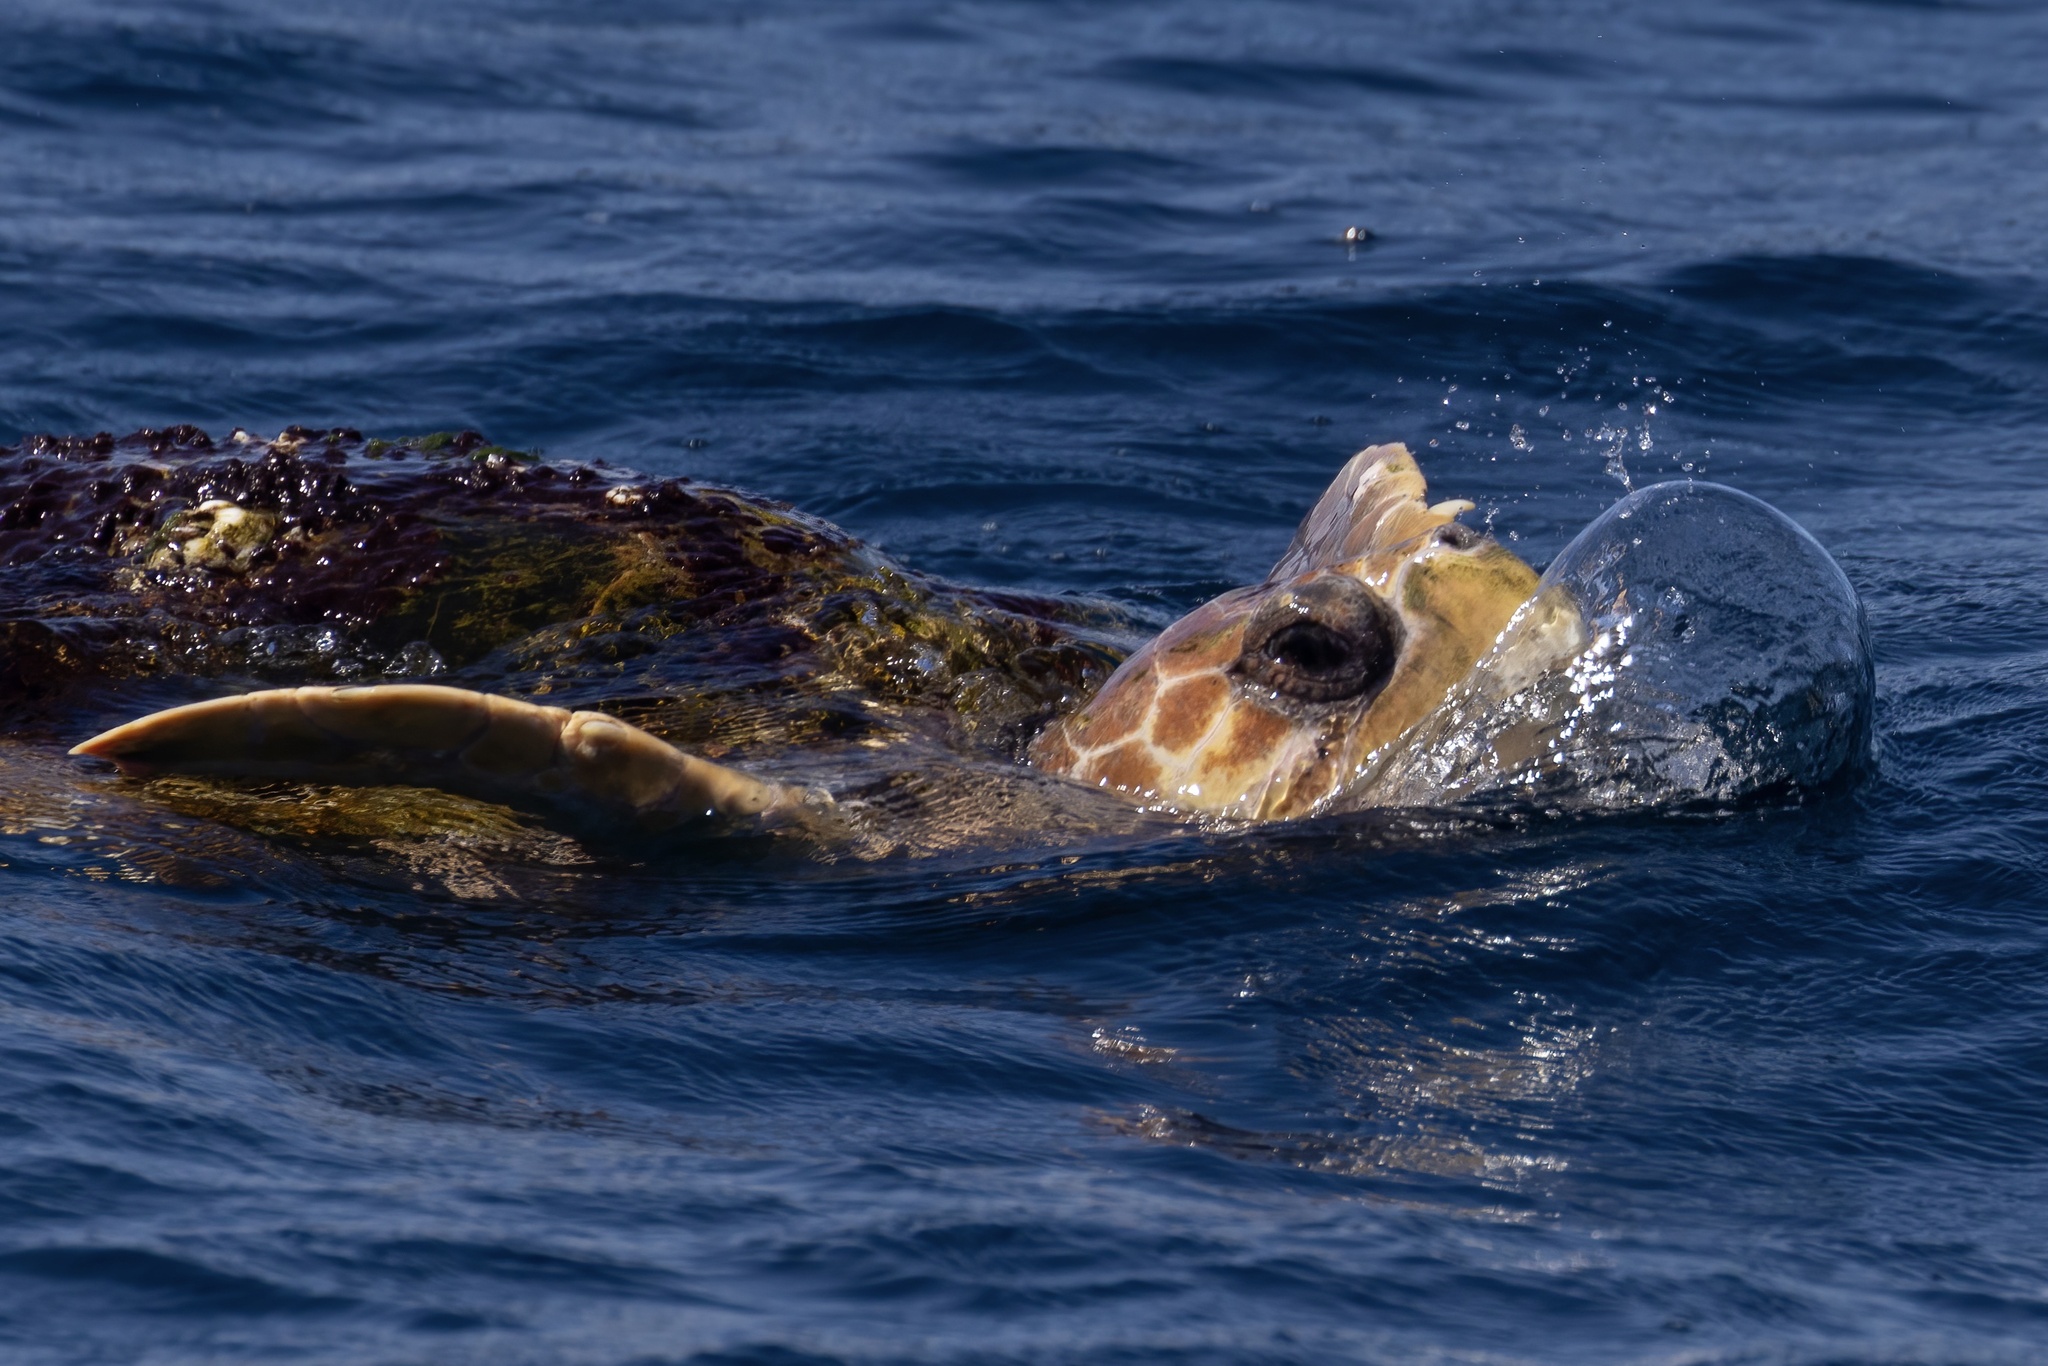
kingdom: Animalia
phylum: Chordata
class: Testudines
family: Cheloniidae
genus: Caretta
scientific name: Caretta caretta
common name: Loggerhead sea turtle
